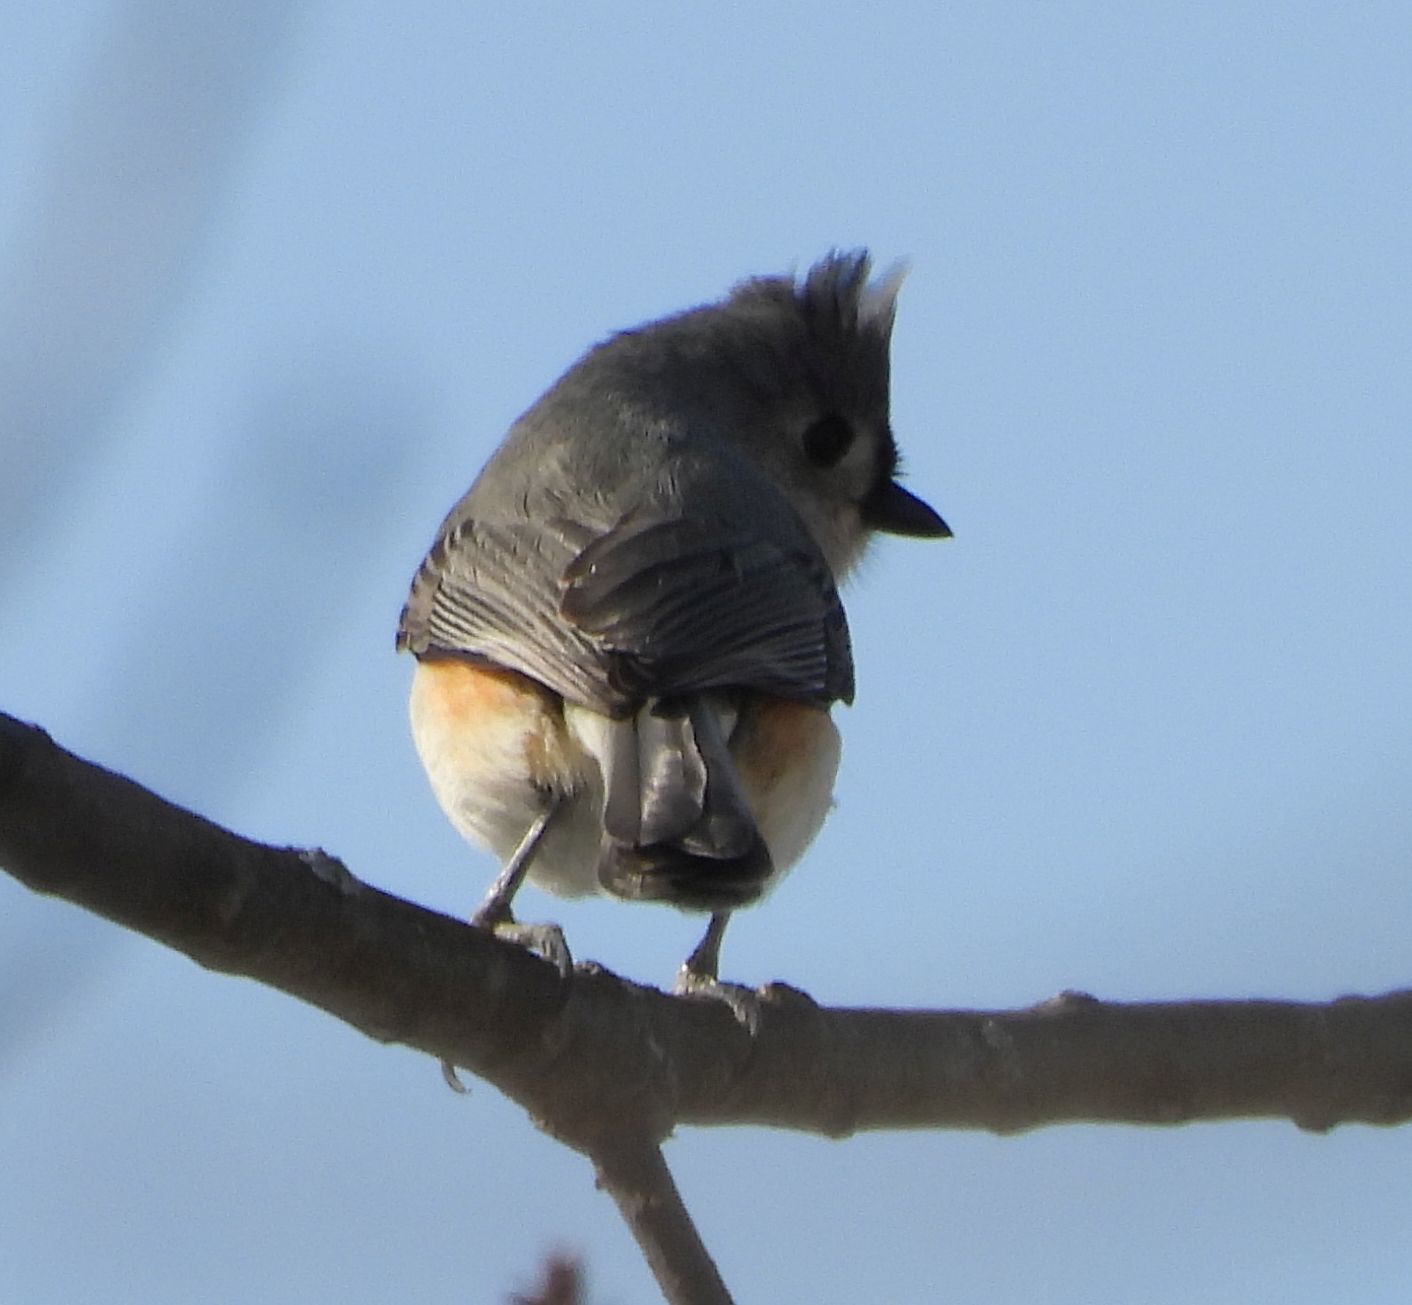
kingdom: Animalia
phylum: Chordata
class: Aves
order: Passeriformes
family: Paridae
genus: Baeolophus
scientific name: Baeolophus bicolor
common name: Tufted titmouse
